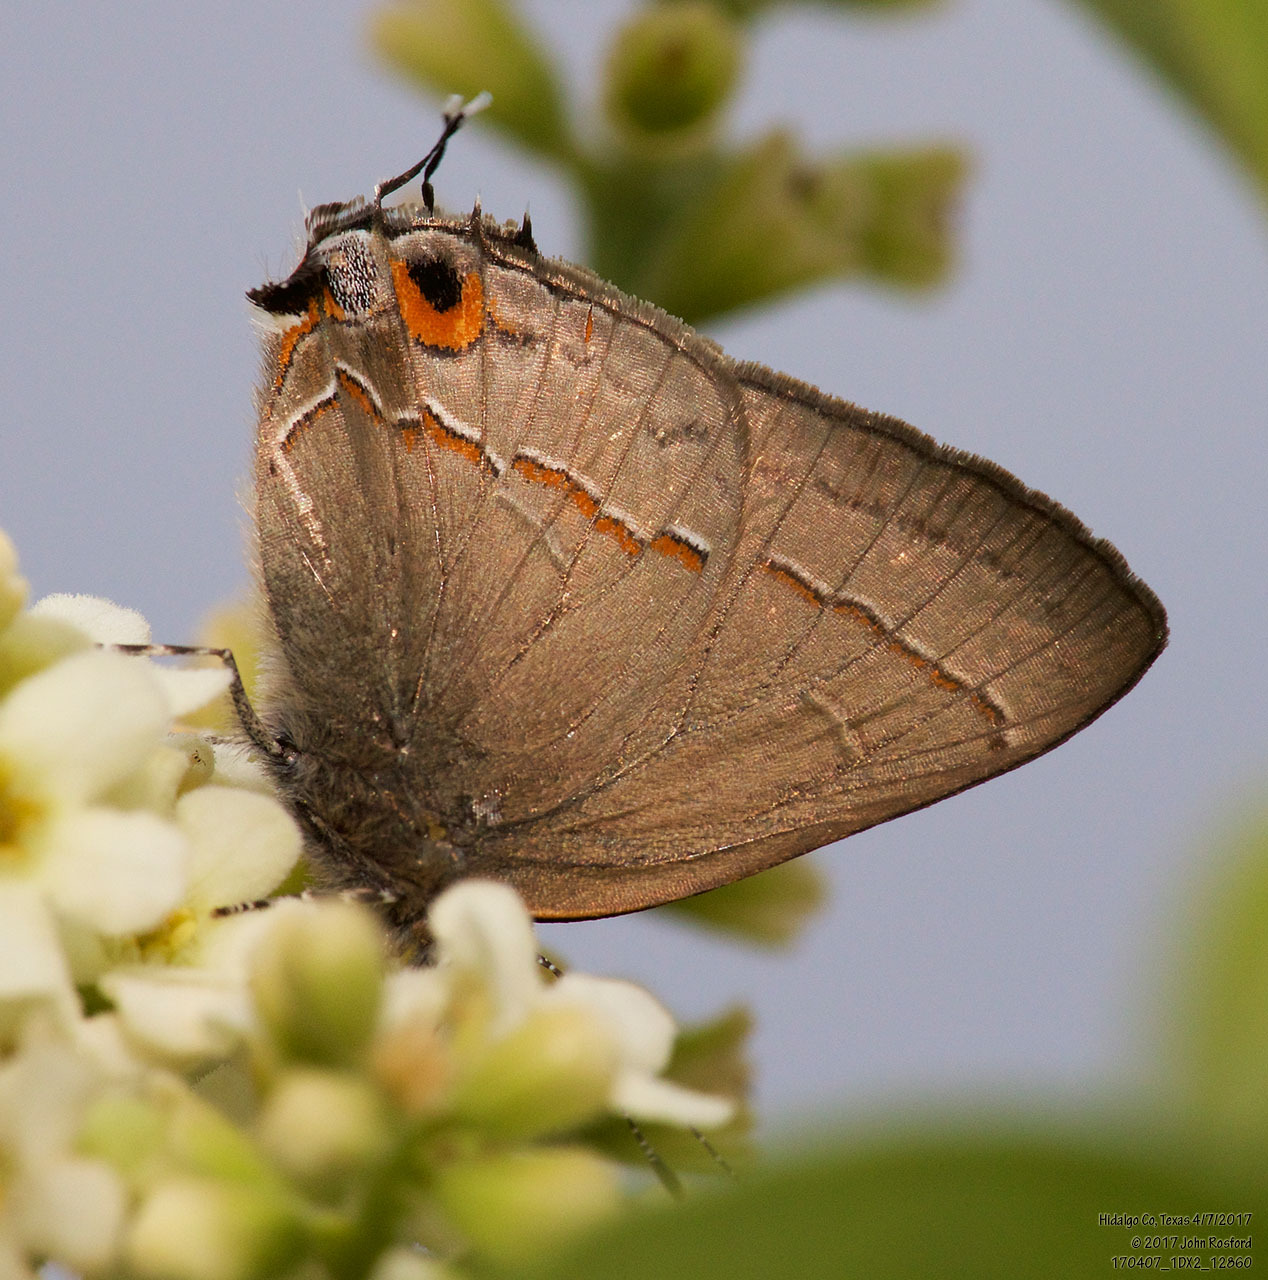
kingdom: Animalia
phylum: Arthropoda
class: Insecta
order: Lepidoptera
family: Lycaenidae
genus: Electrostrymon
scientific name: Electrostrymon endymion
